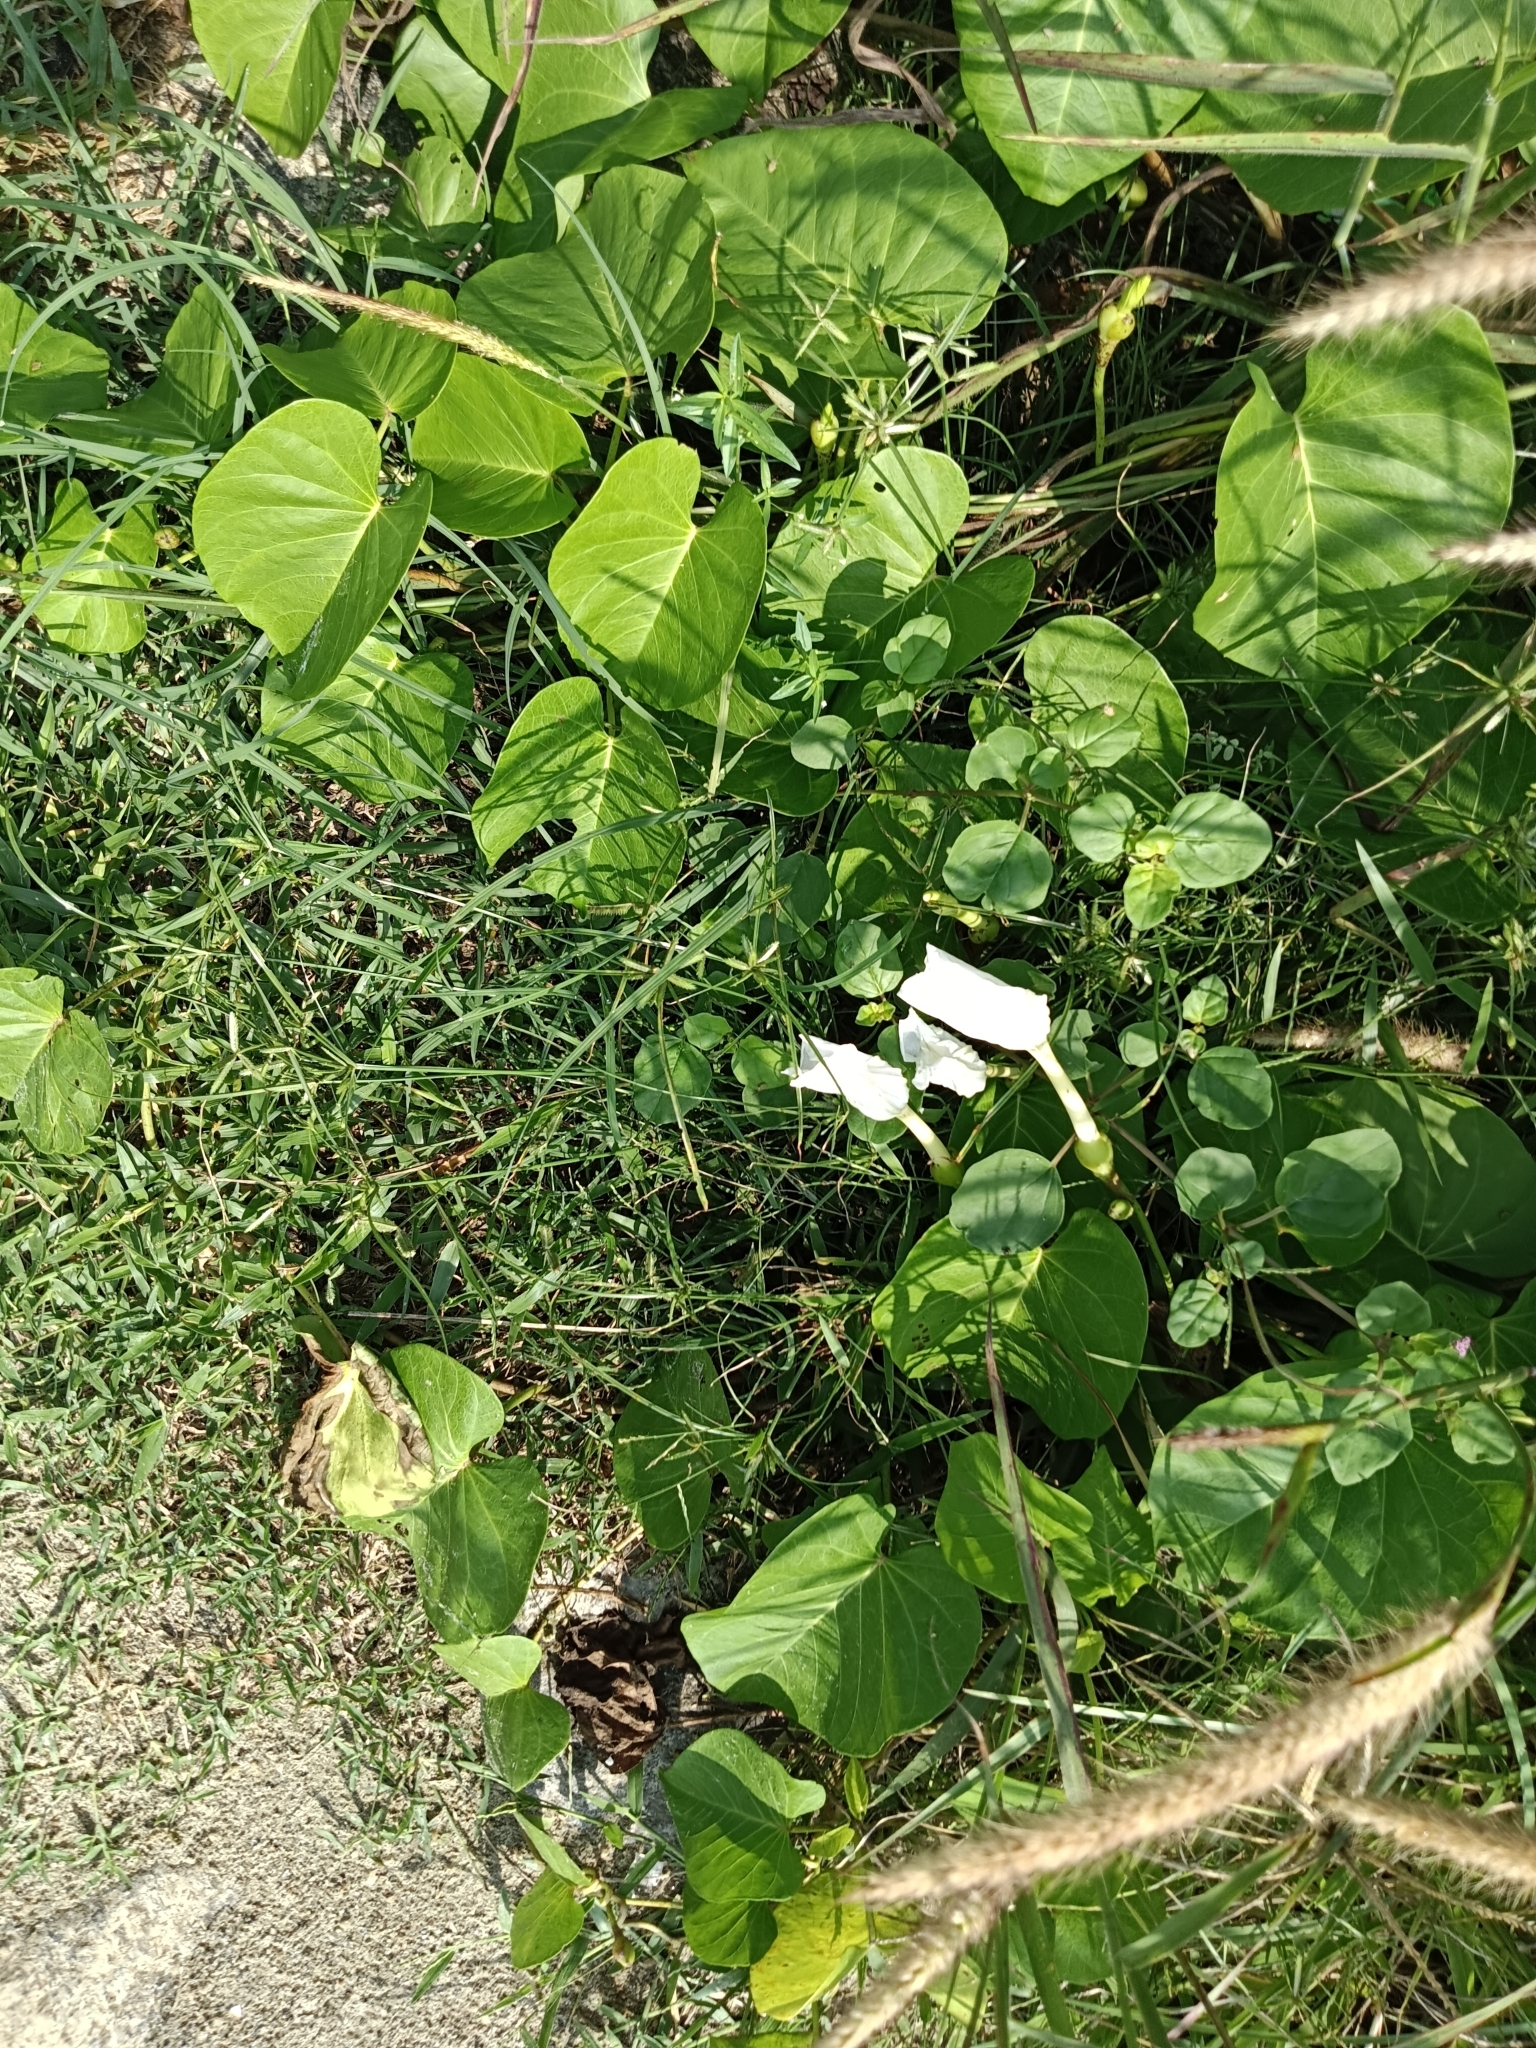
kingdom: Plantae
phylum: Tracheophyta
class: Magnoliopsida
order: Solanales
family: Convolvulaceae
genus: Ipomoea
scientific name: Ipomoea violacea
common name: Beach moonflower
